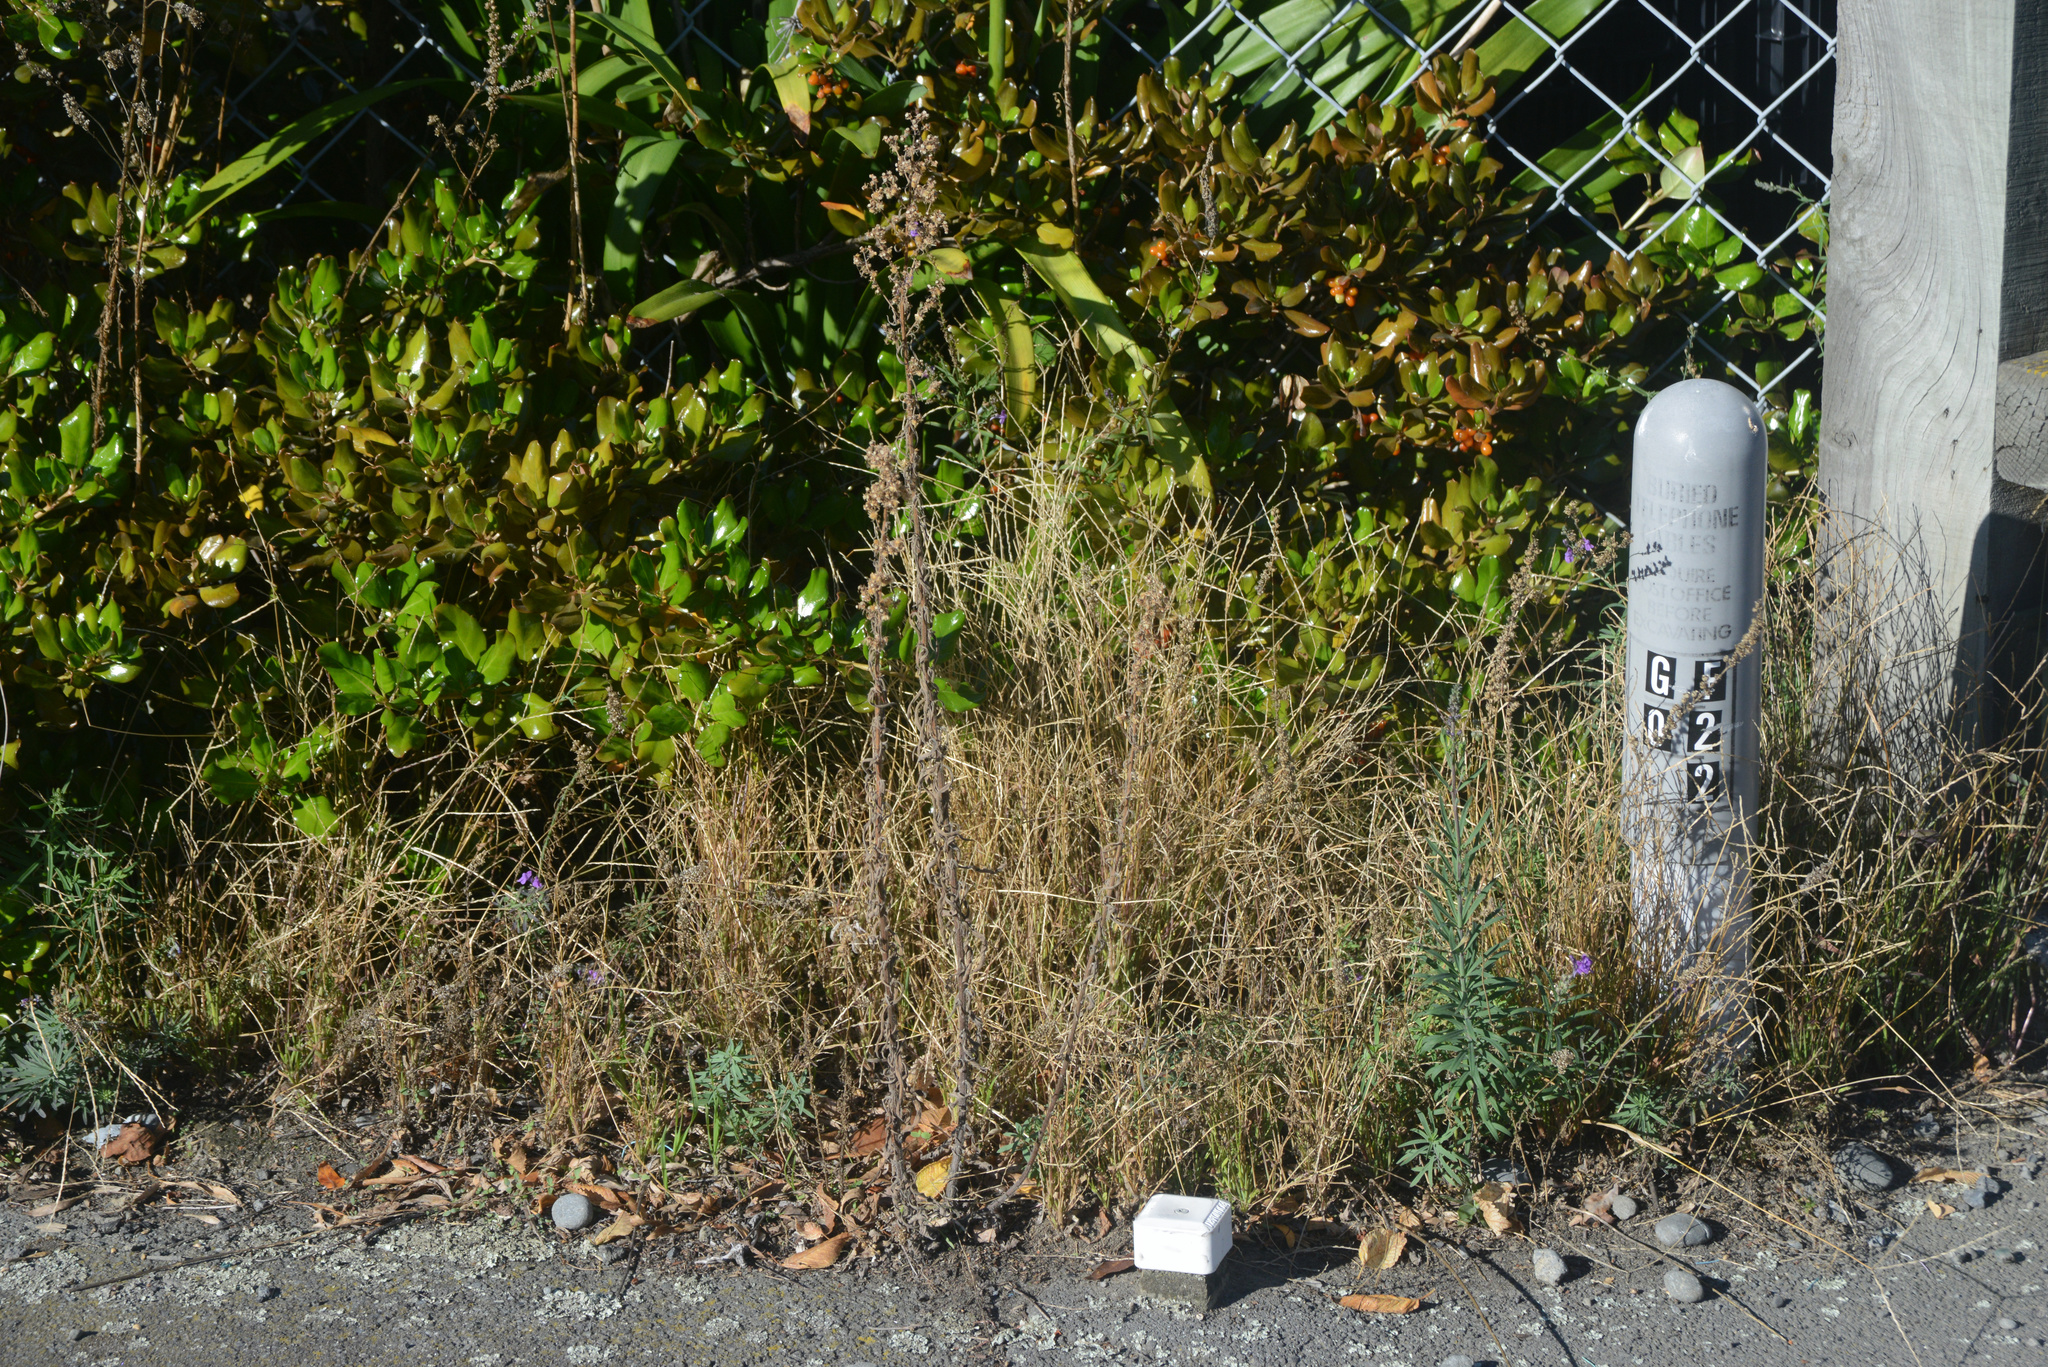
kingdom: Plantae
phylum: Tracheophyta
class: Magnoliopsida
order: Lamiales
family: Plantaginaceae
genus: Linaria
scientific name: Linaria purpurea
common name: Purple toadflax
